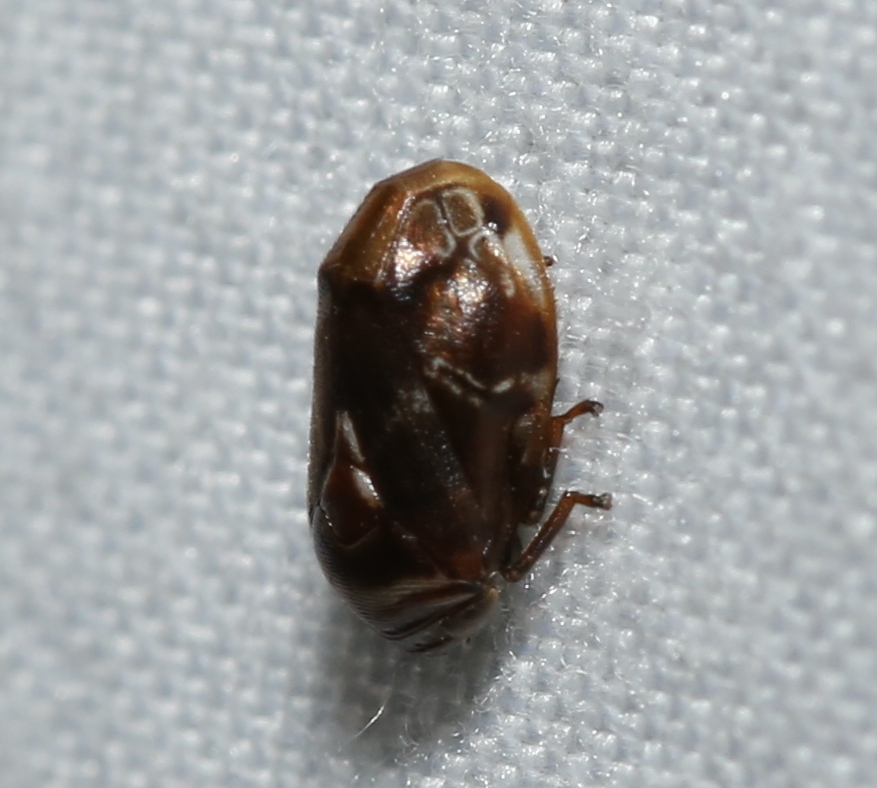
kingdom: Animalia
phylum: Arthropoda
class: Insecta
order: Hemiptera
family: Clastopteridae
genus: Clastoptera
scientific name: Clastoptera obtusa
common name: Alder spittlebug
